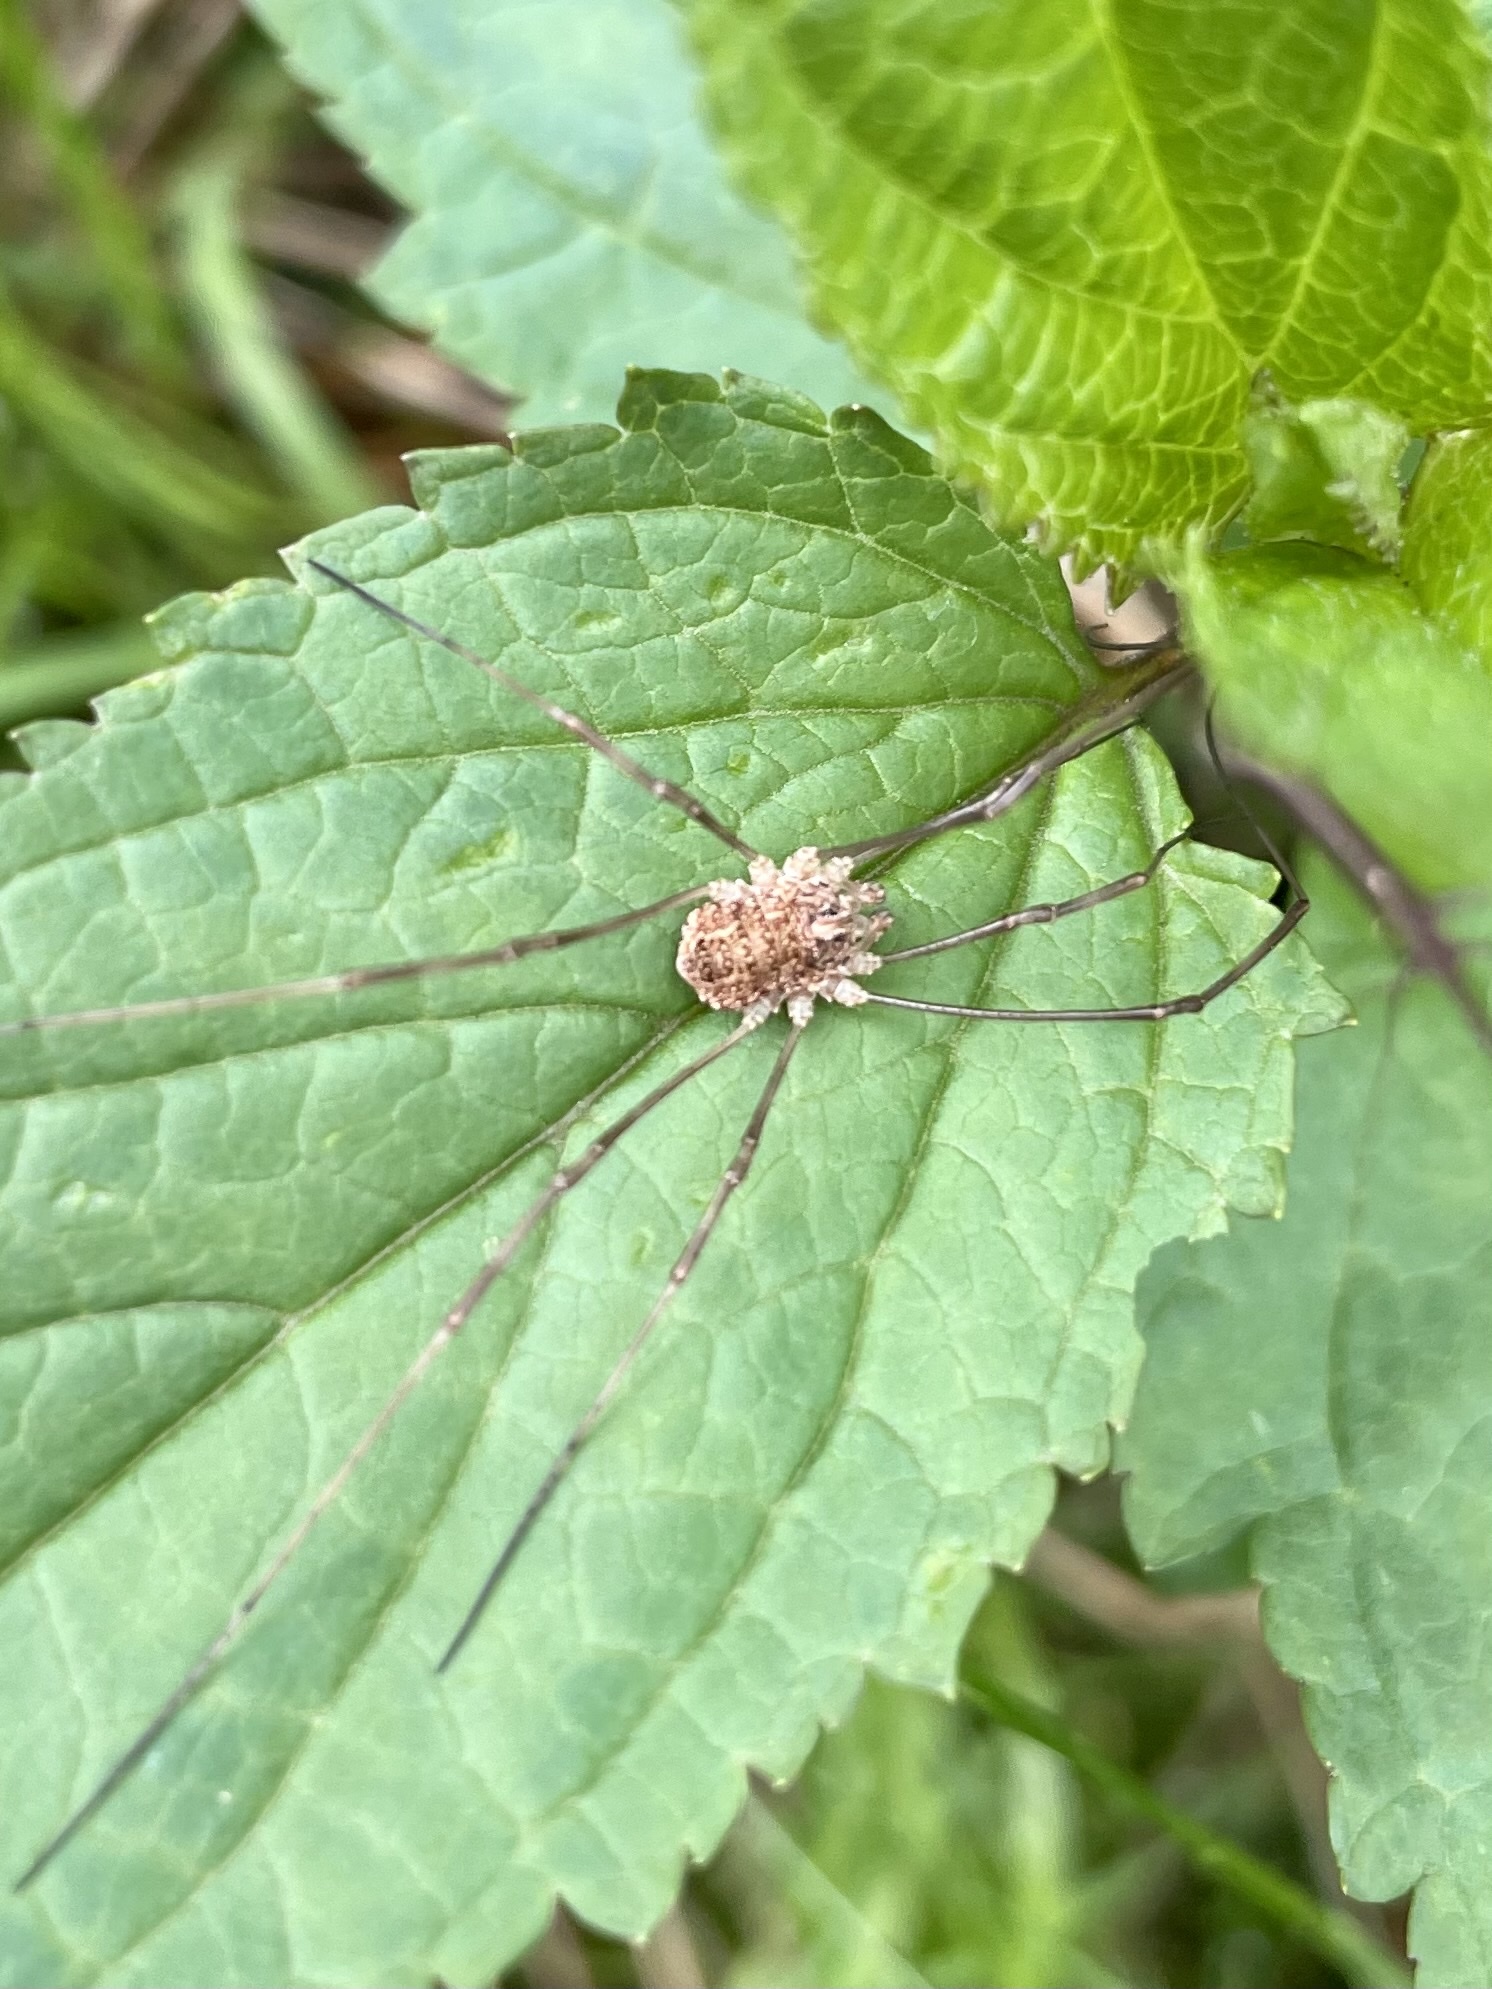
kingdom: Animalia
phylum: Arthropoda
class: Arachnida
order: Opiliones
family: Phalangiidae
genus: Rilaena
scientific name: Rilaena triangularis
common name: Spring harvestman
